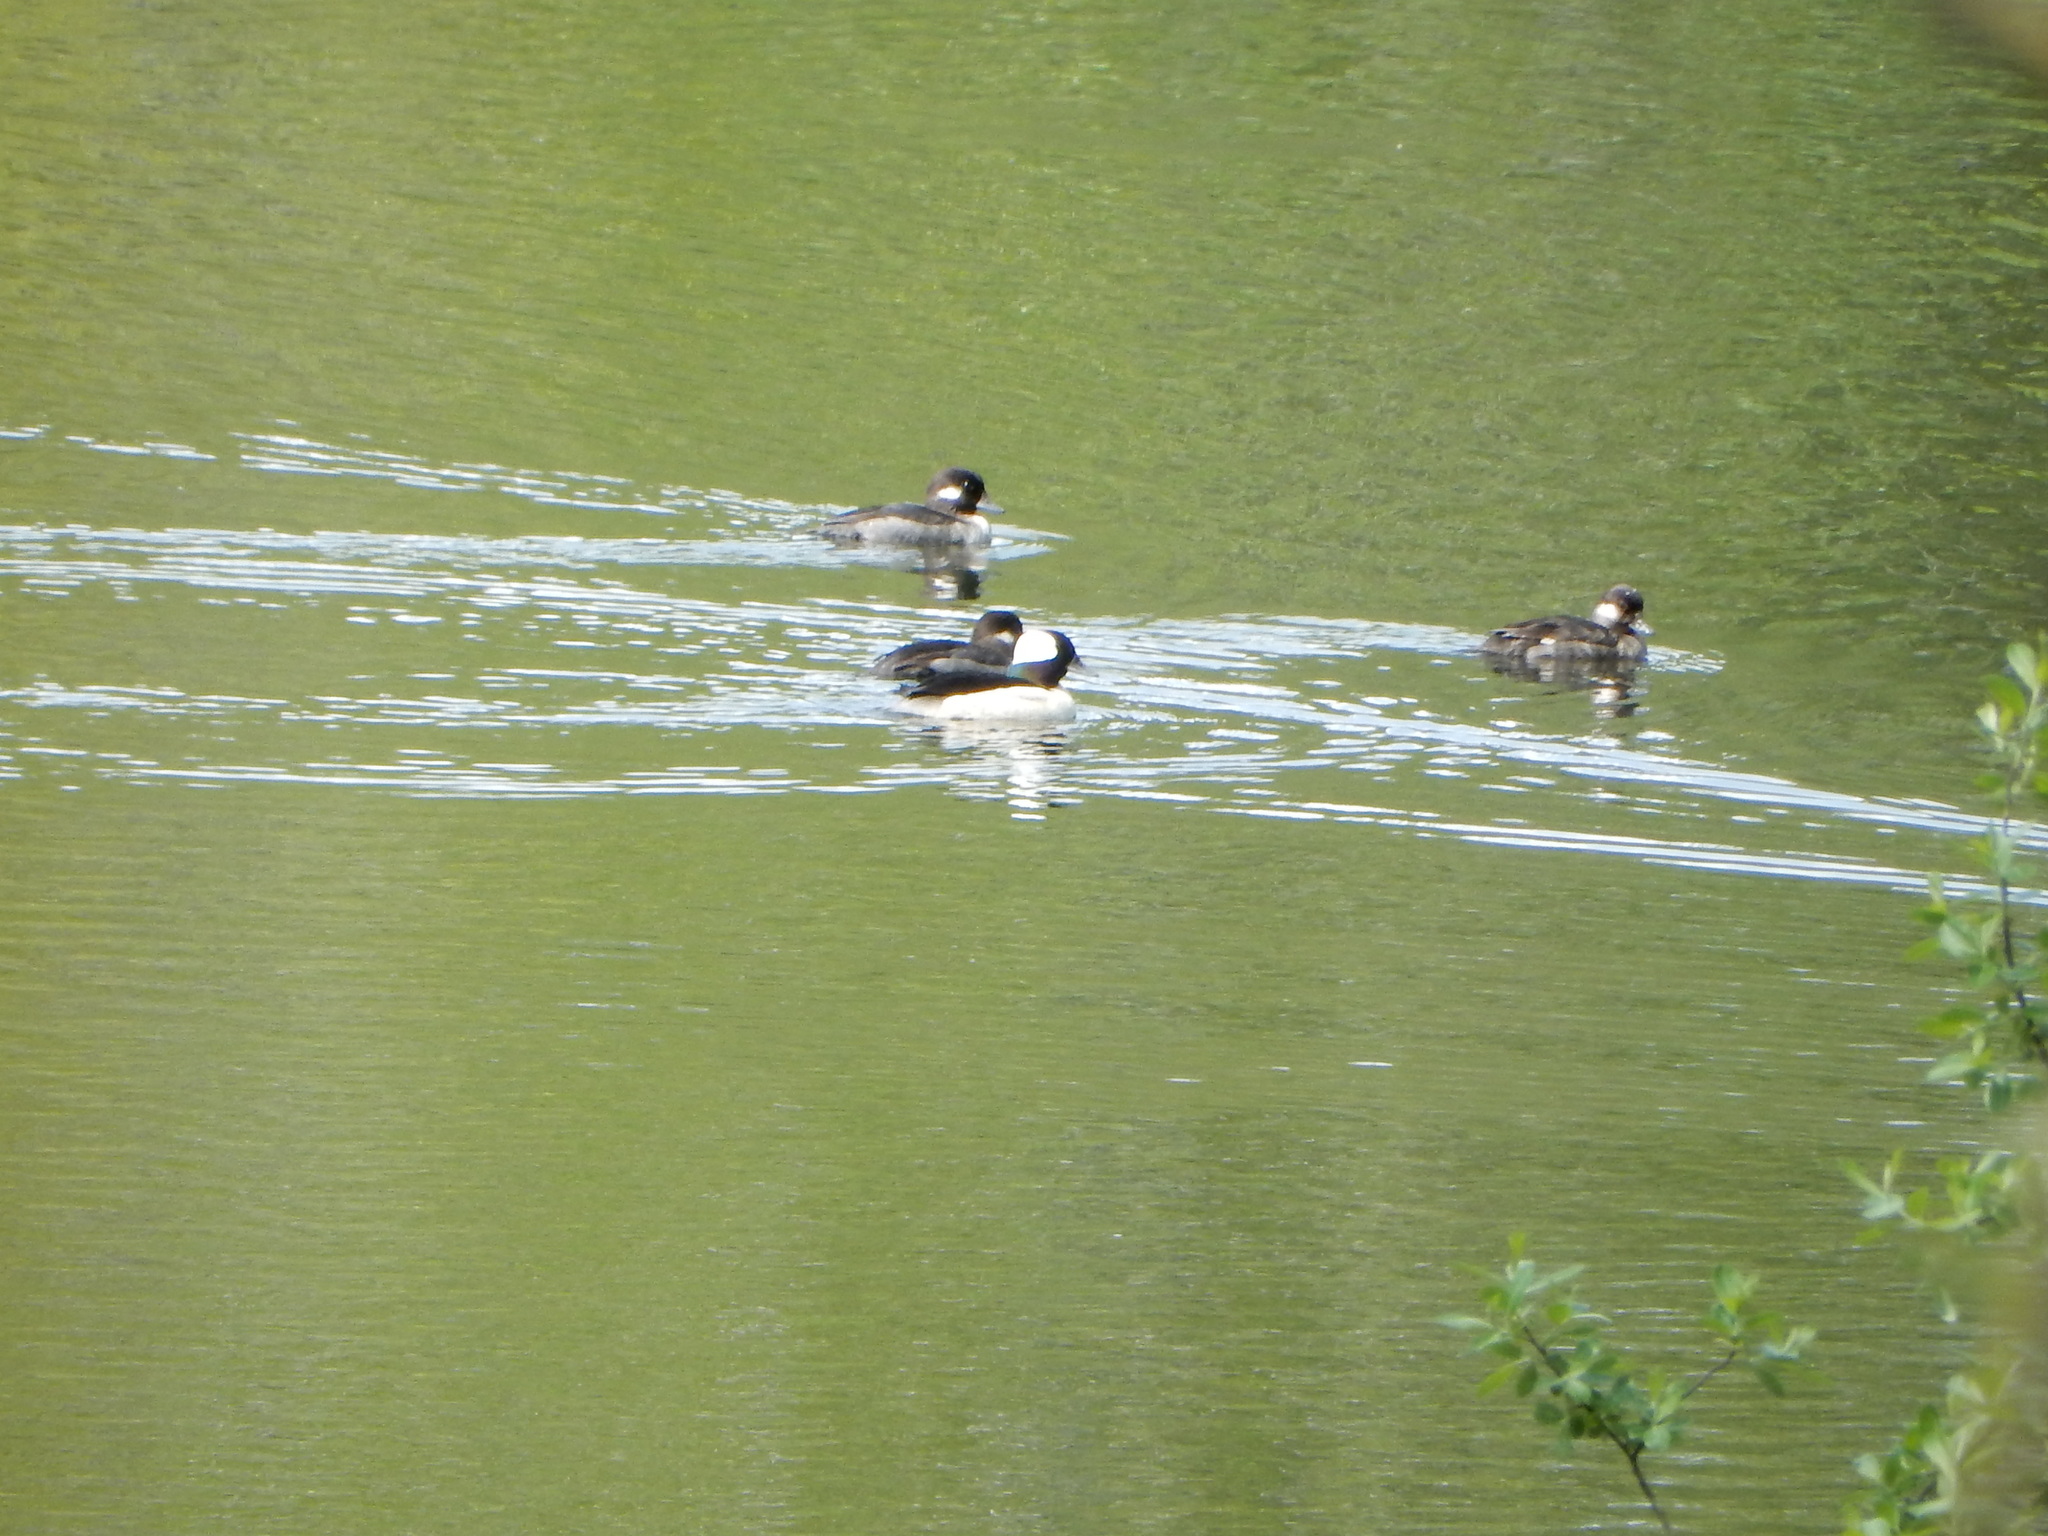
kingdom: Animalia
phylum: Chordata
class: Aves
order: Anseriformes
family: Anatidae
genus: Bucephala
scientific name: Bucephala albeola
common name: Bufflehead
